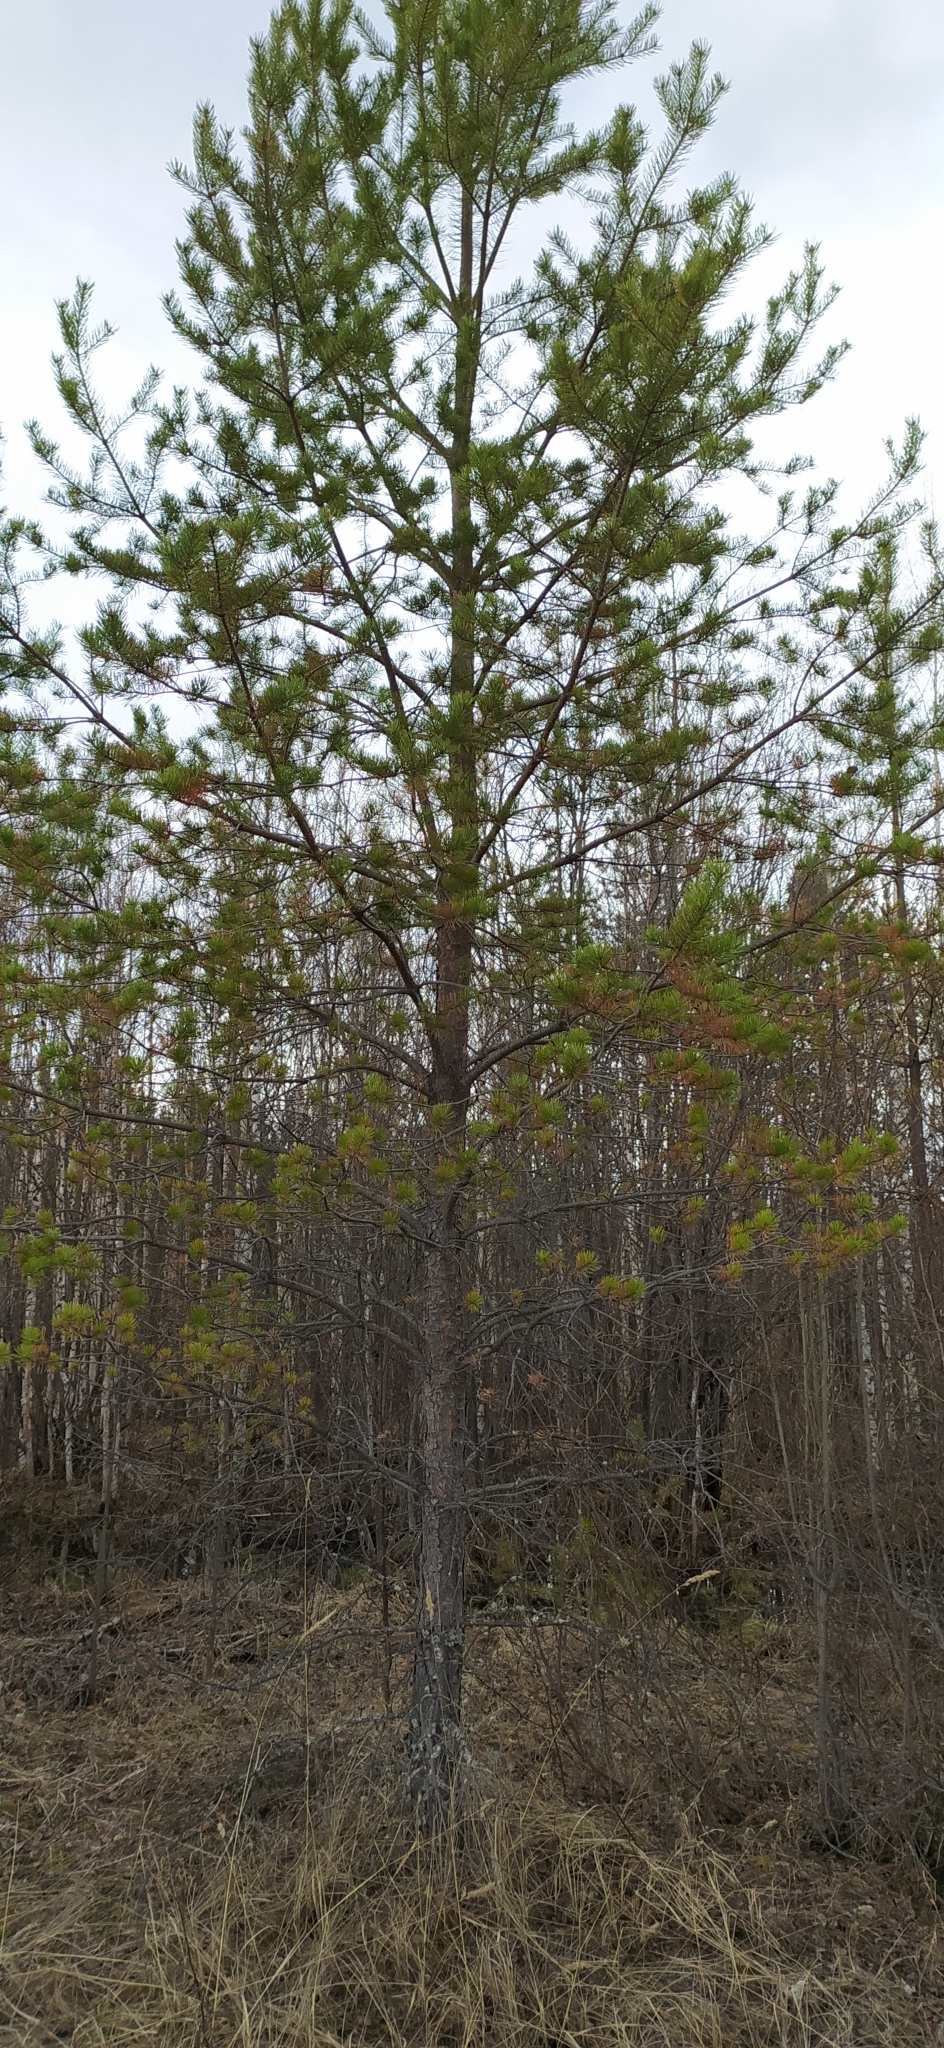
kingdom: Plantae
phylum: Tracheophyta
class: Pinopsida
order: Pinales
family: Pinaceae
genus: Pinus
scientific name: Pinus sylvestris
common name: Scots pine
